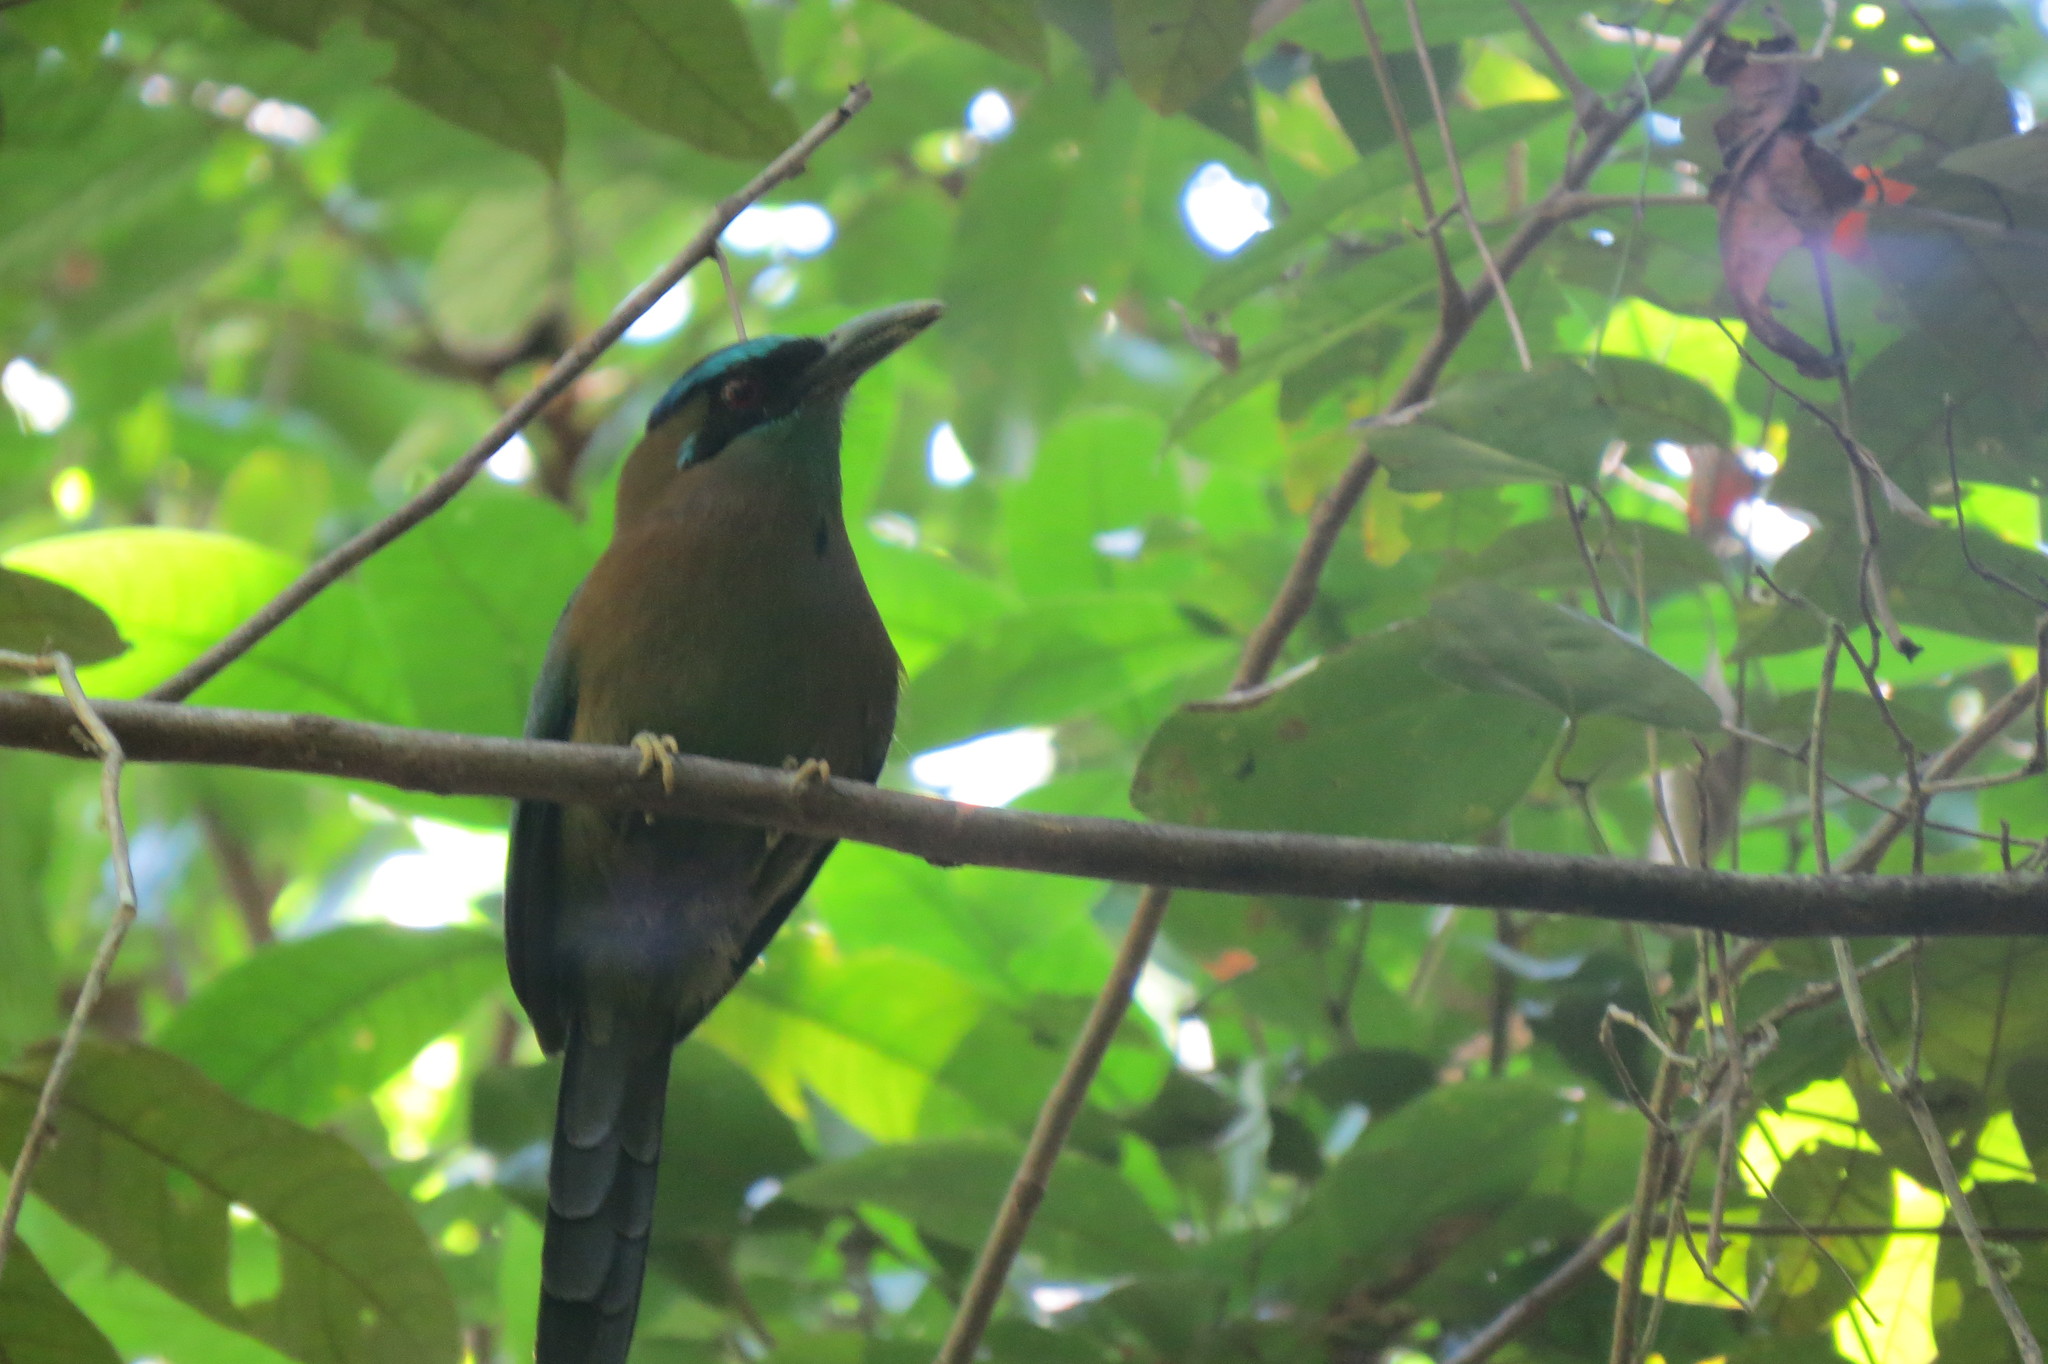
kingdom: Animalia
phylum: Chordata
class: Aves
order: Coraciiformes
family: Momotidae
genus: Momotus
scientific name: Momotus lessonii
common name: Lesson's motmot
